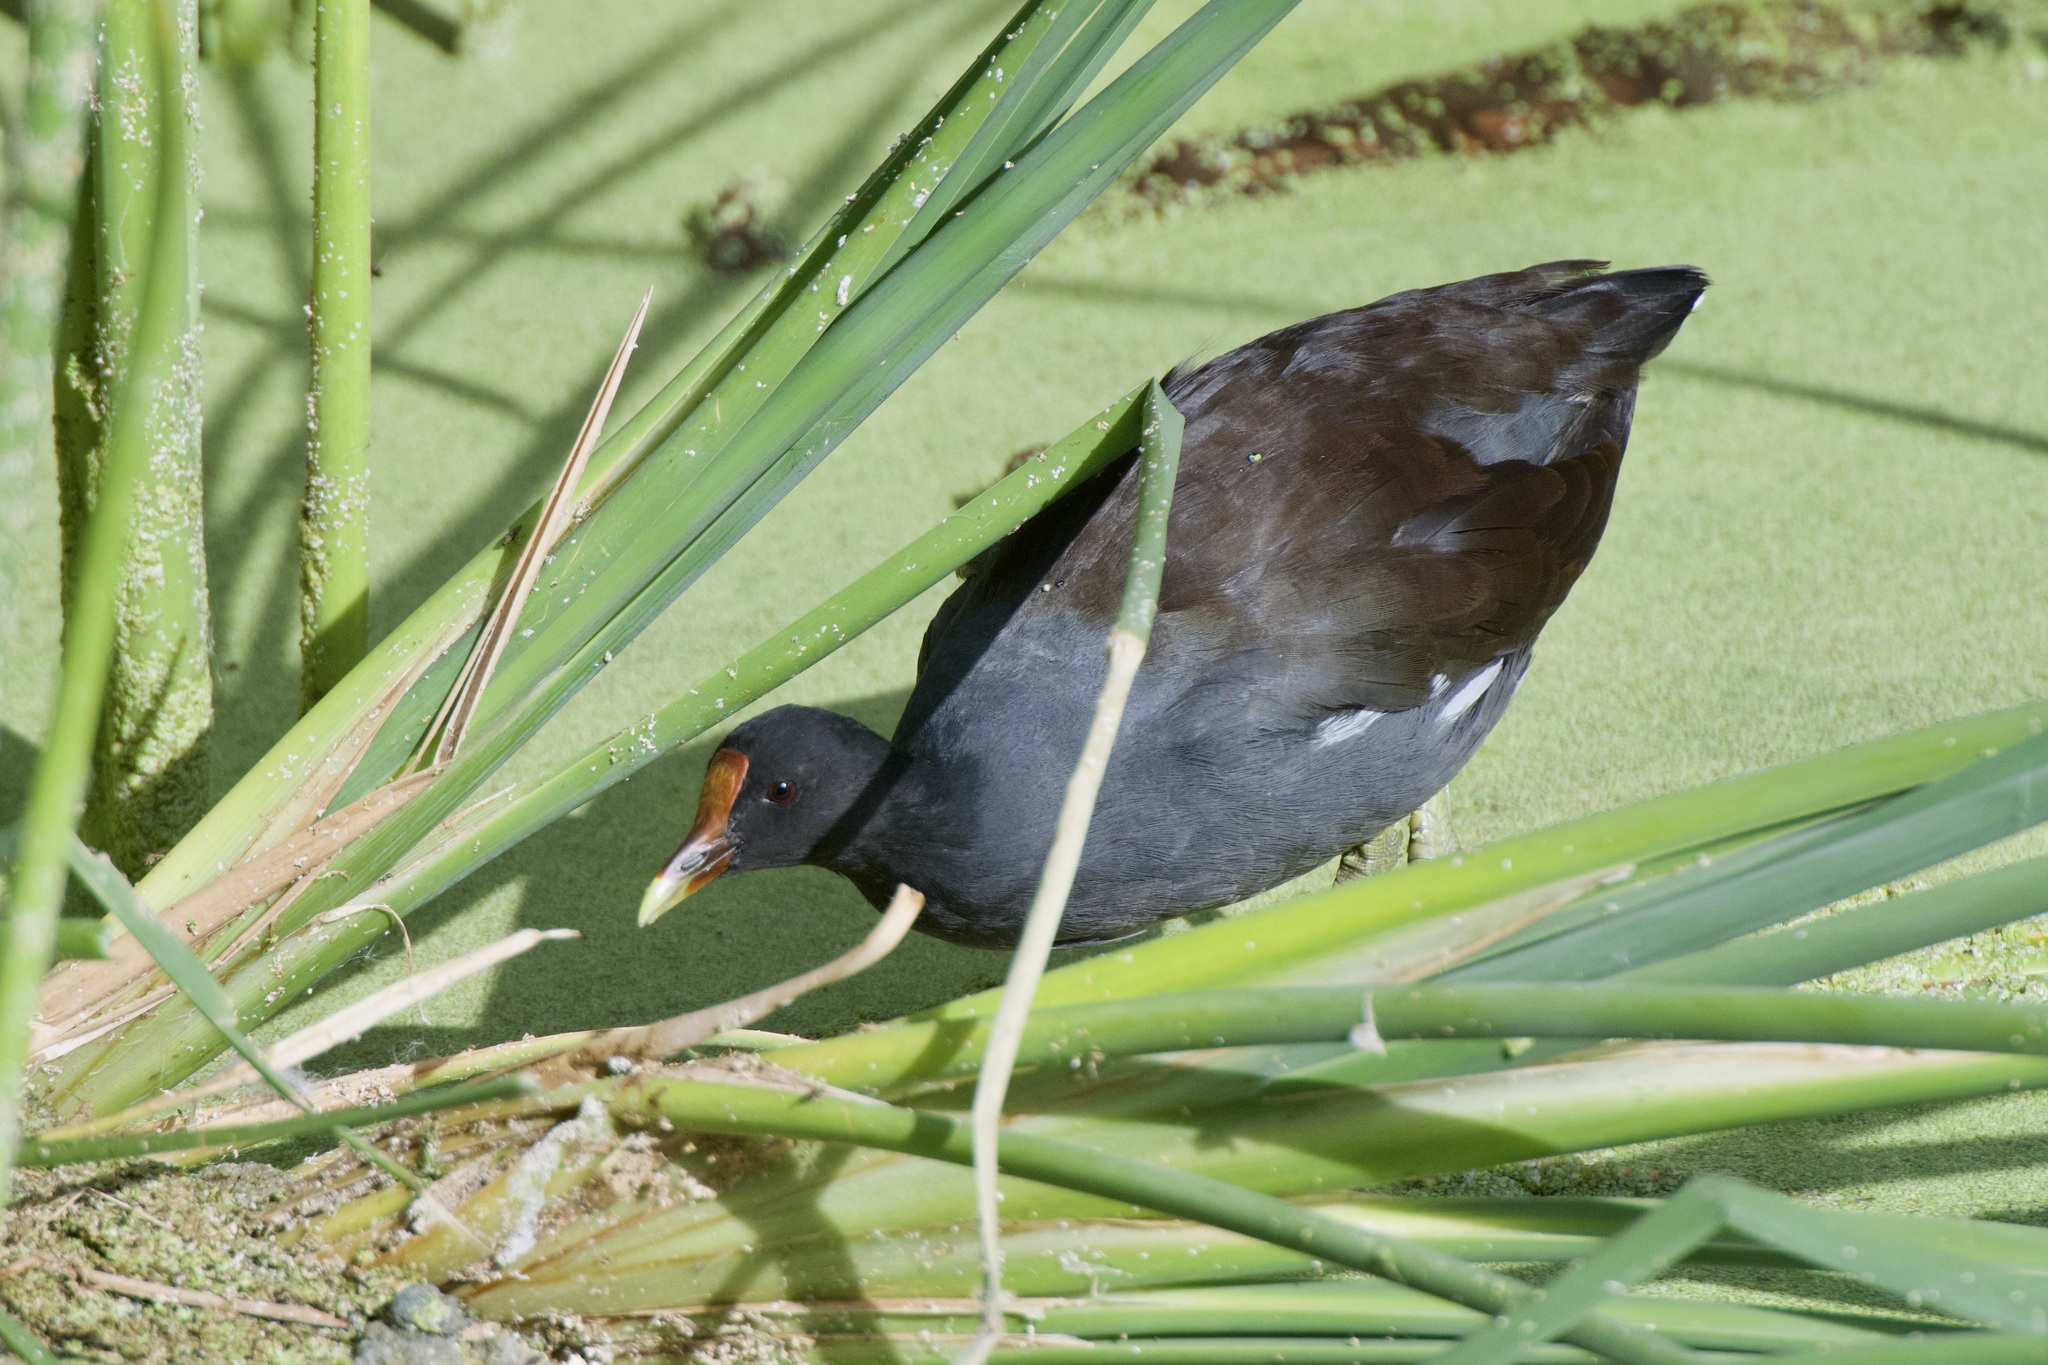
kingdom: Animalia
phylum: Chordata
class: Aves
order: Gruiformes
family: Rallidae
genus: Gallinula
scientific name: Gallinula chloropus
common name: Common moorhen
